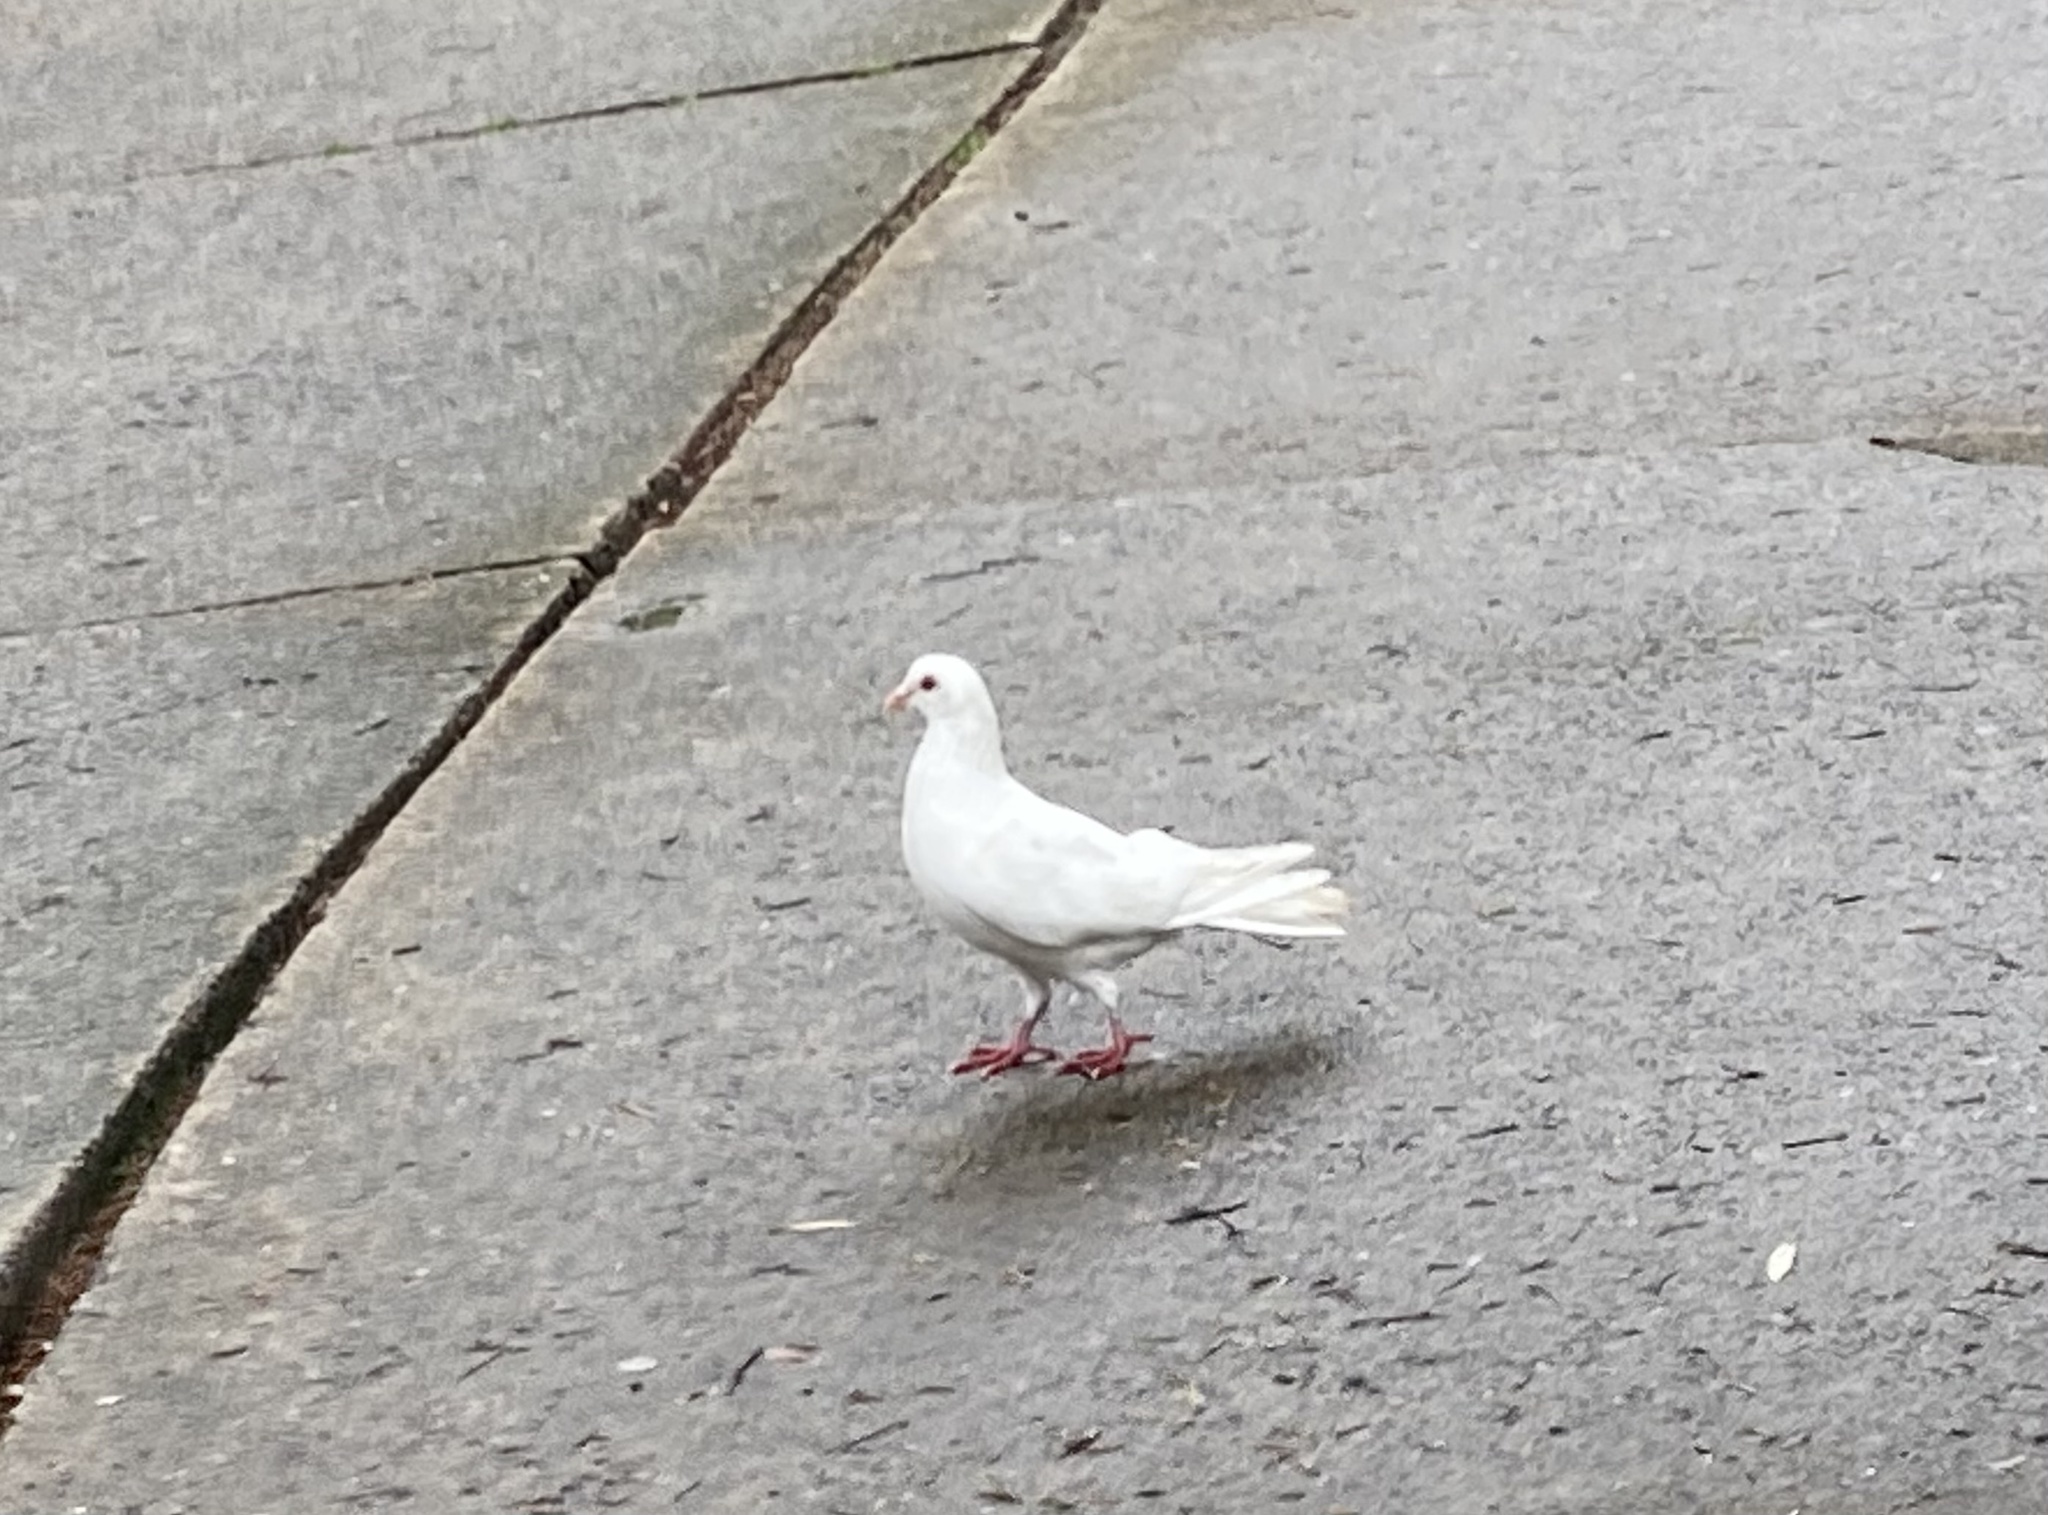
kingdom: Animalia
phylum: Chordata
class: Aves
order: Columbiformes
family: Columbidae
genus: Columba
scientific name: Columba livia
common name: Rock pigeon
